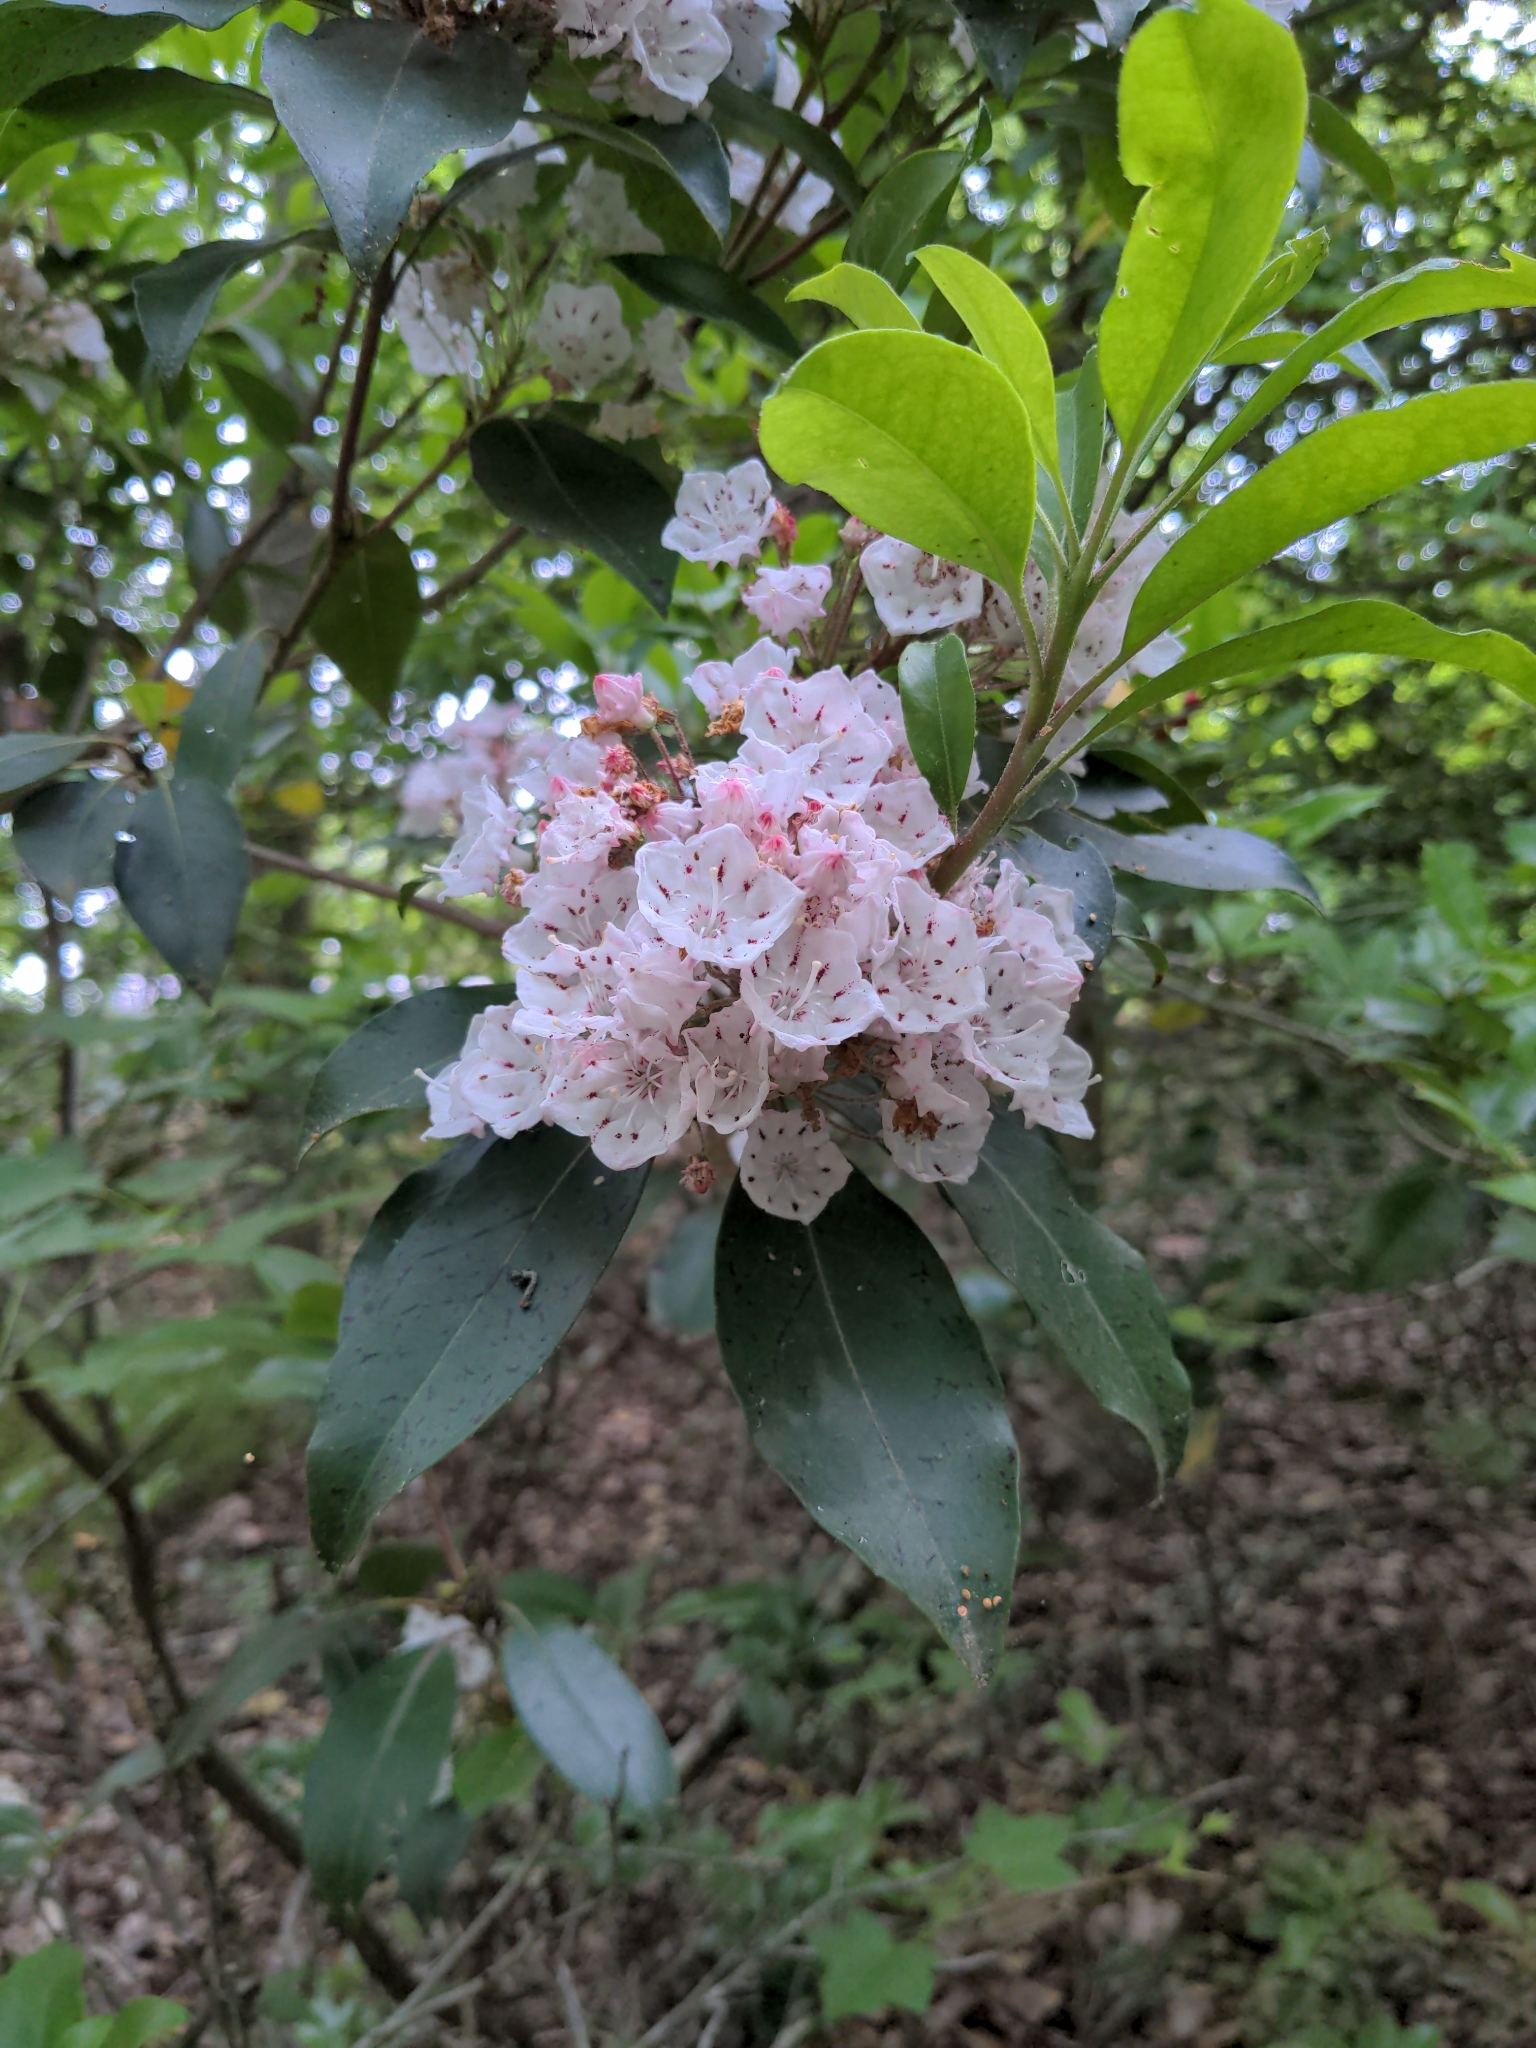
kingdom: Plantae
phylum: Tracheophyta
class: Magnoliopsida
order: Ericales
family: Ericaceae
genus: Kalmia
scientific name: Kalmia latifolia
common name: Mountain-laurel
